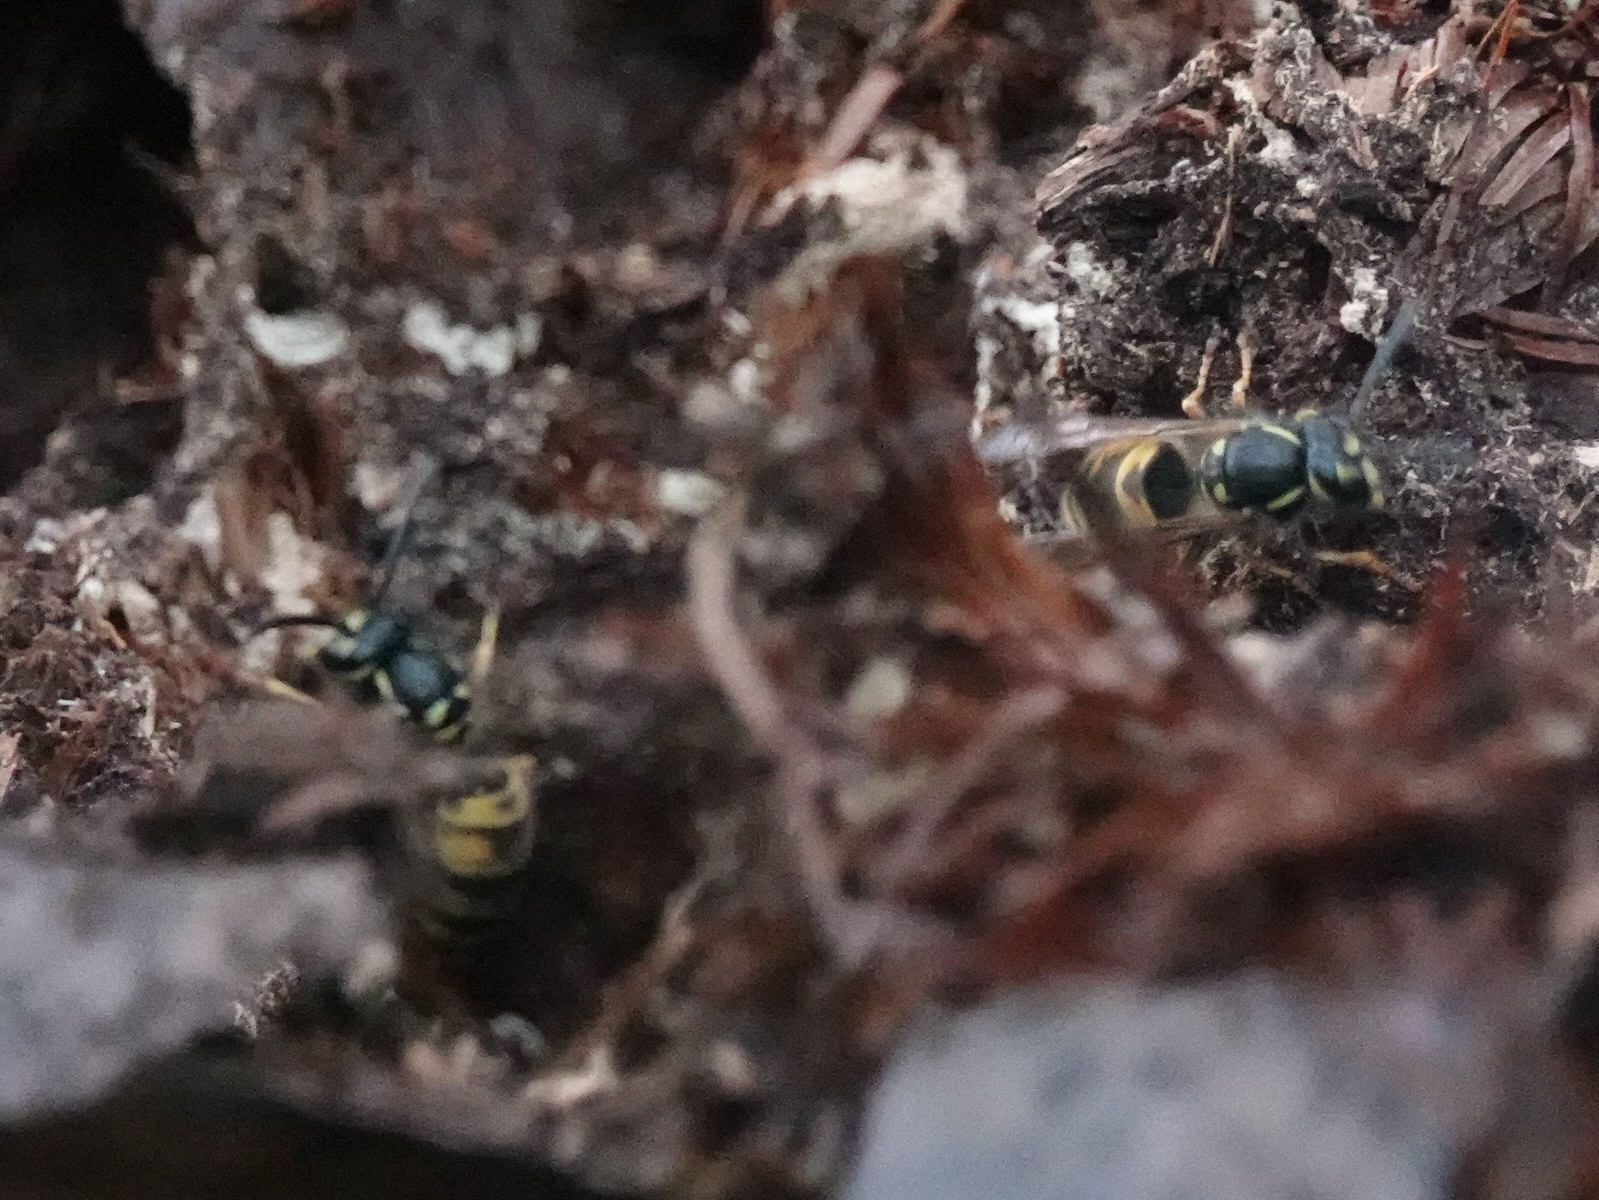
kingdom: Animalia
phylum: Arthropoda
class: Insecta
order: Hymenoptera
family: Vespidae
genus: Vespula
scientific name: Vespula vulgaris
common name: Common wasp
